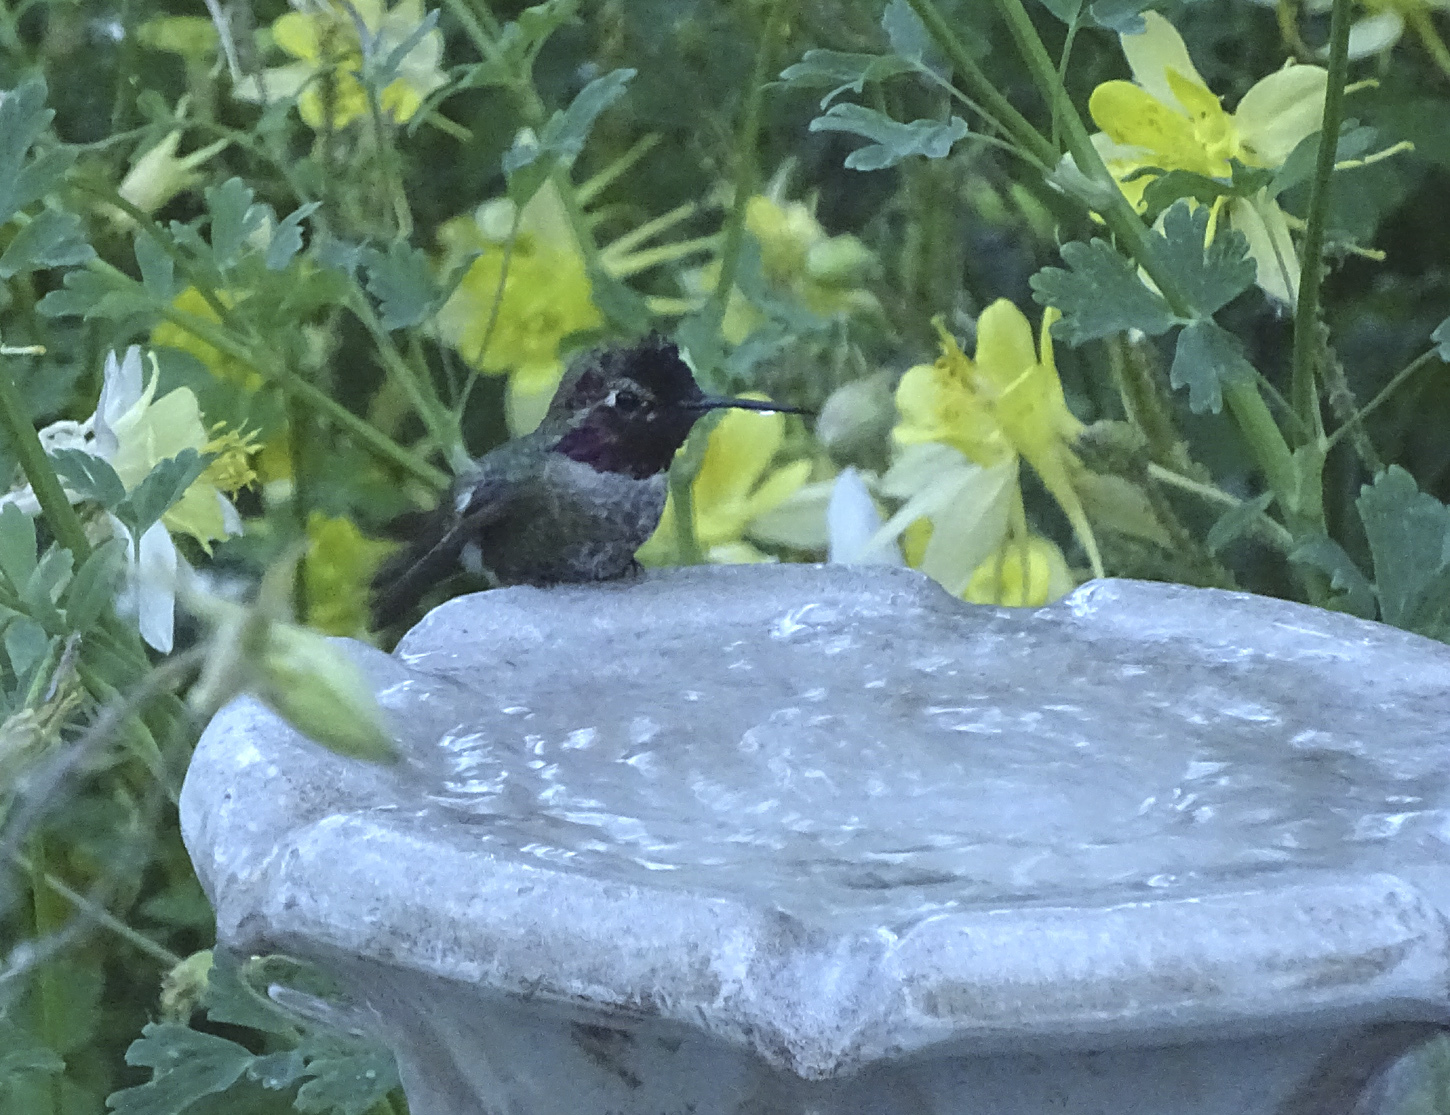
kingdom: Animalia
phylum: Chordata
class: Aves
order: Apodiformes
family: Trochilidae
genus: Calypte
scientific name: Calypte anna
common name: Anna's hummingbird
